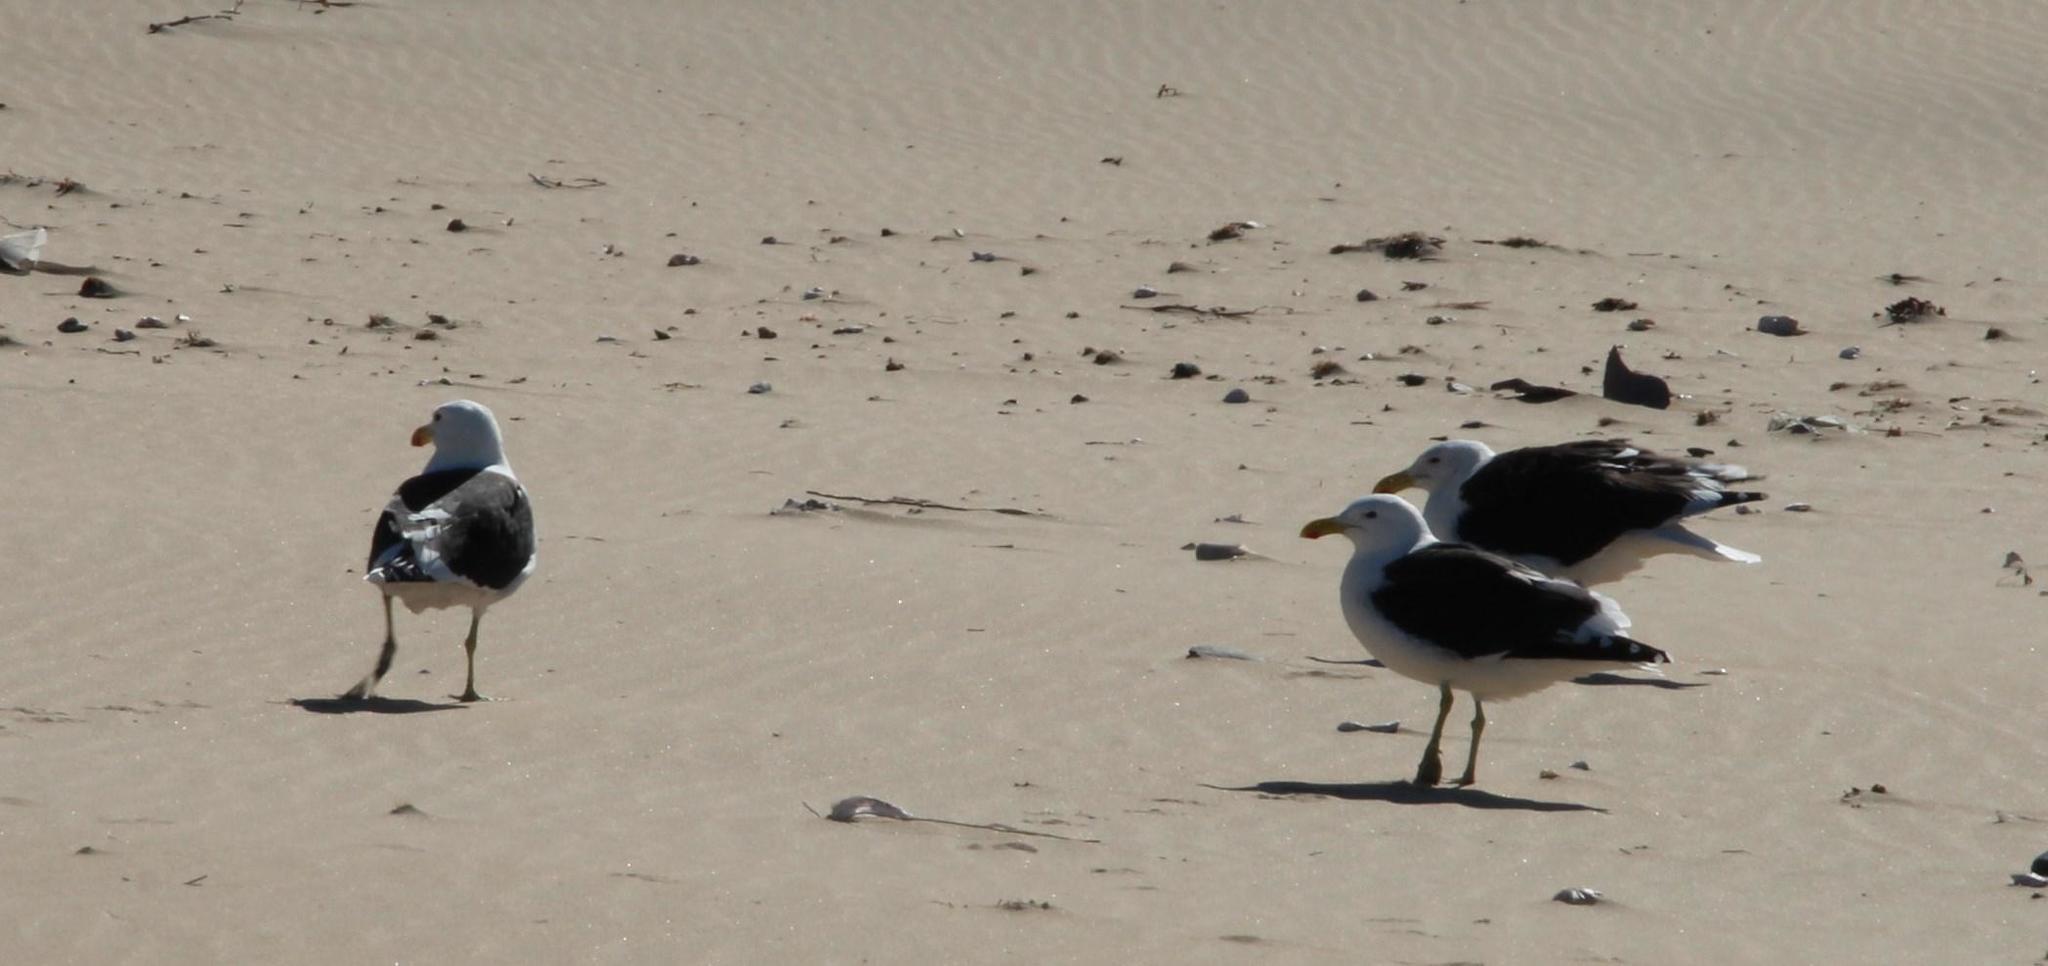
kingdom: Animalia
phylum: Chordata
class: Aves
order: Charadriiformes
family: Laridae
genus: Larus
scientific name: Larus dominicanus
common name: Kelp gull
